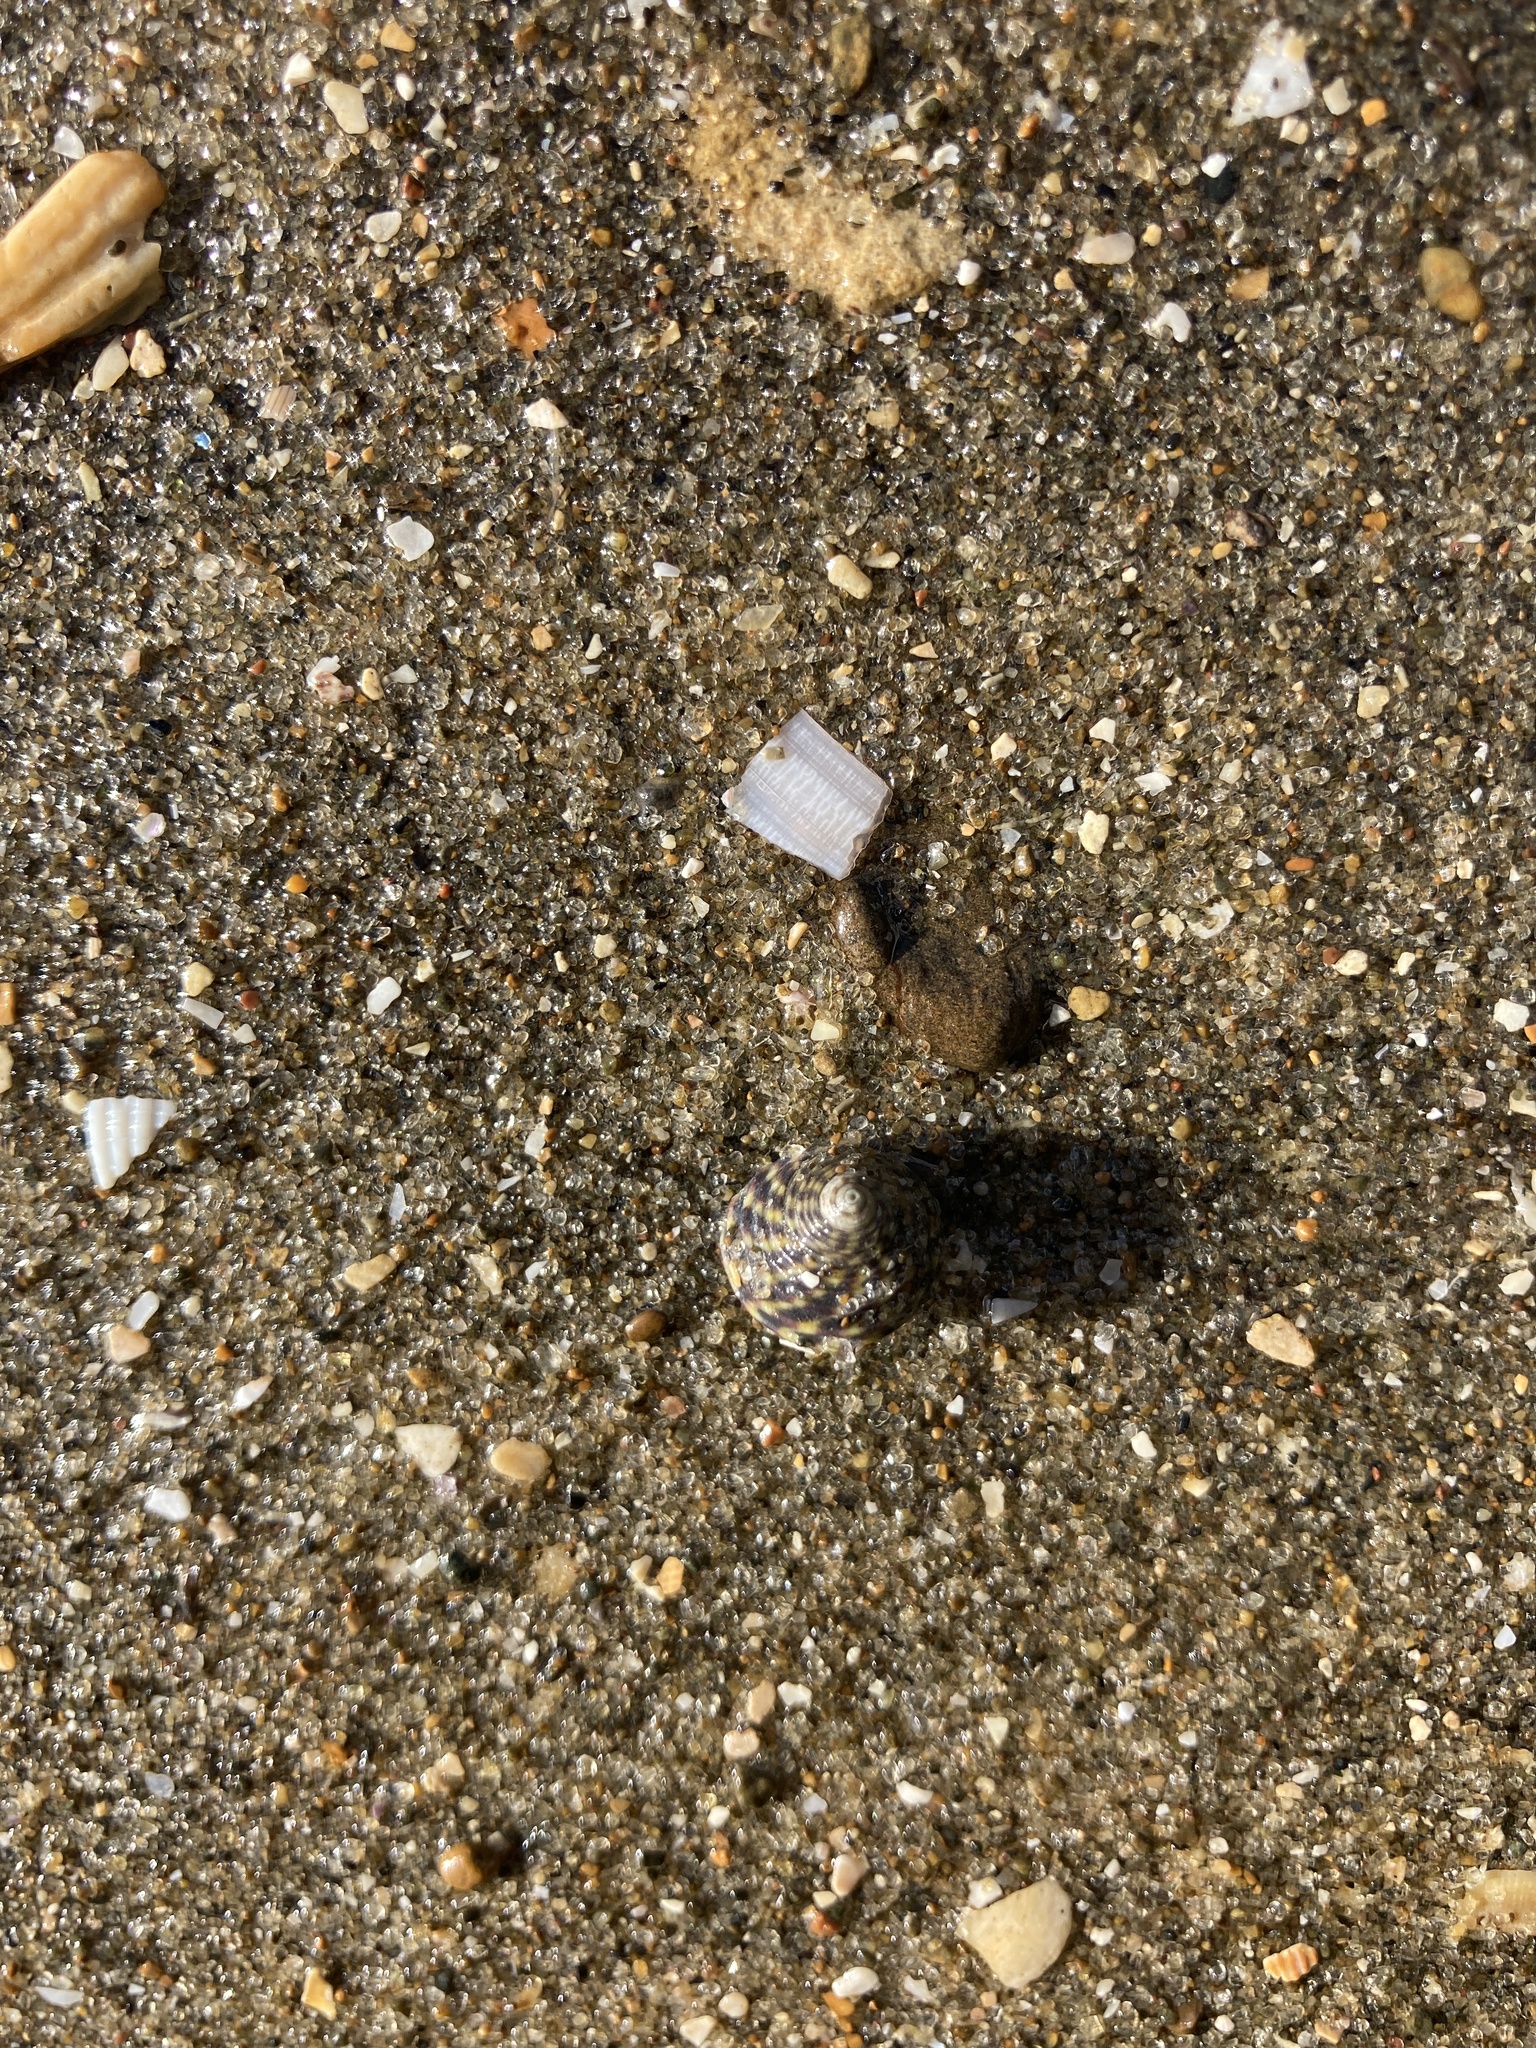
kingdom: Animalia
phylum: Mollusca
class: Gastropoda
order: Trochida
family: Trochidae
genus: Diloma
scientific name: Diloma subrostratum
